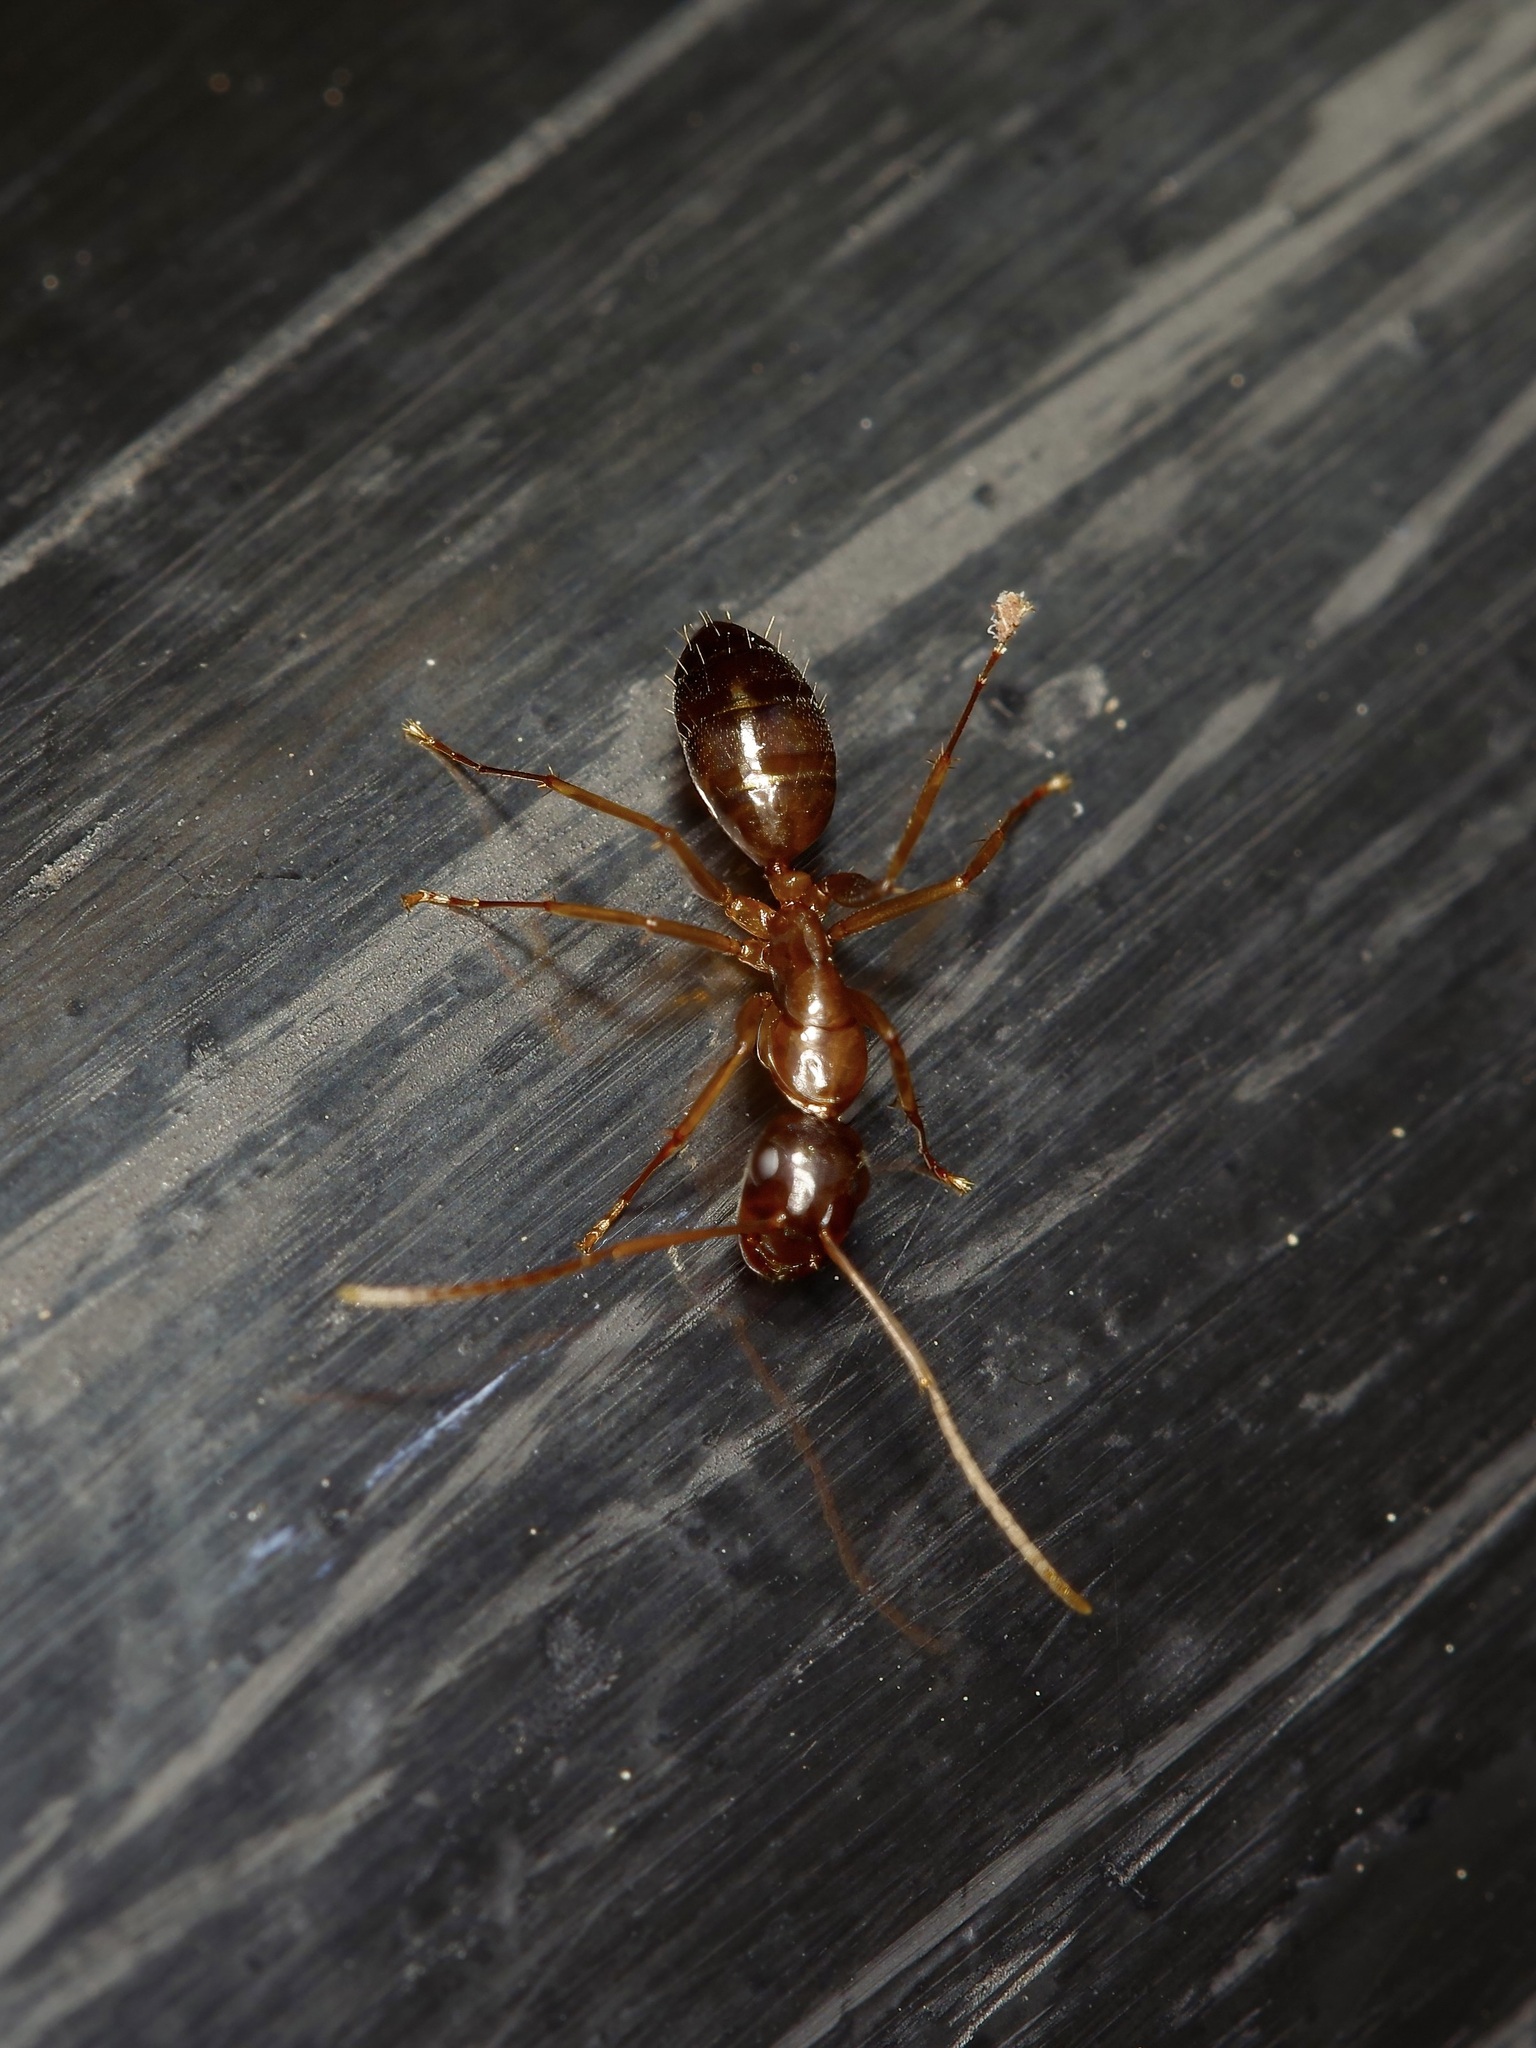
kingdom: Animalia
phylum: Arthropoda
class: Insecta
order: Hymenoptera
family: Formicidae
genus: Camponotus
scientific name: Camponotus sansabeanus
